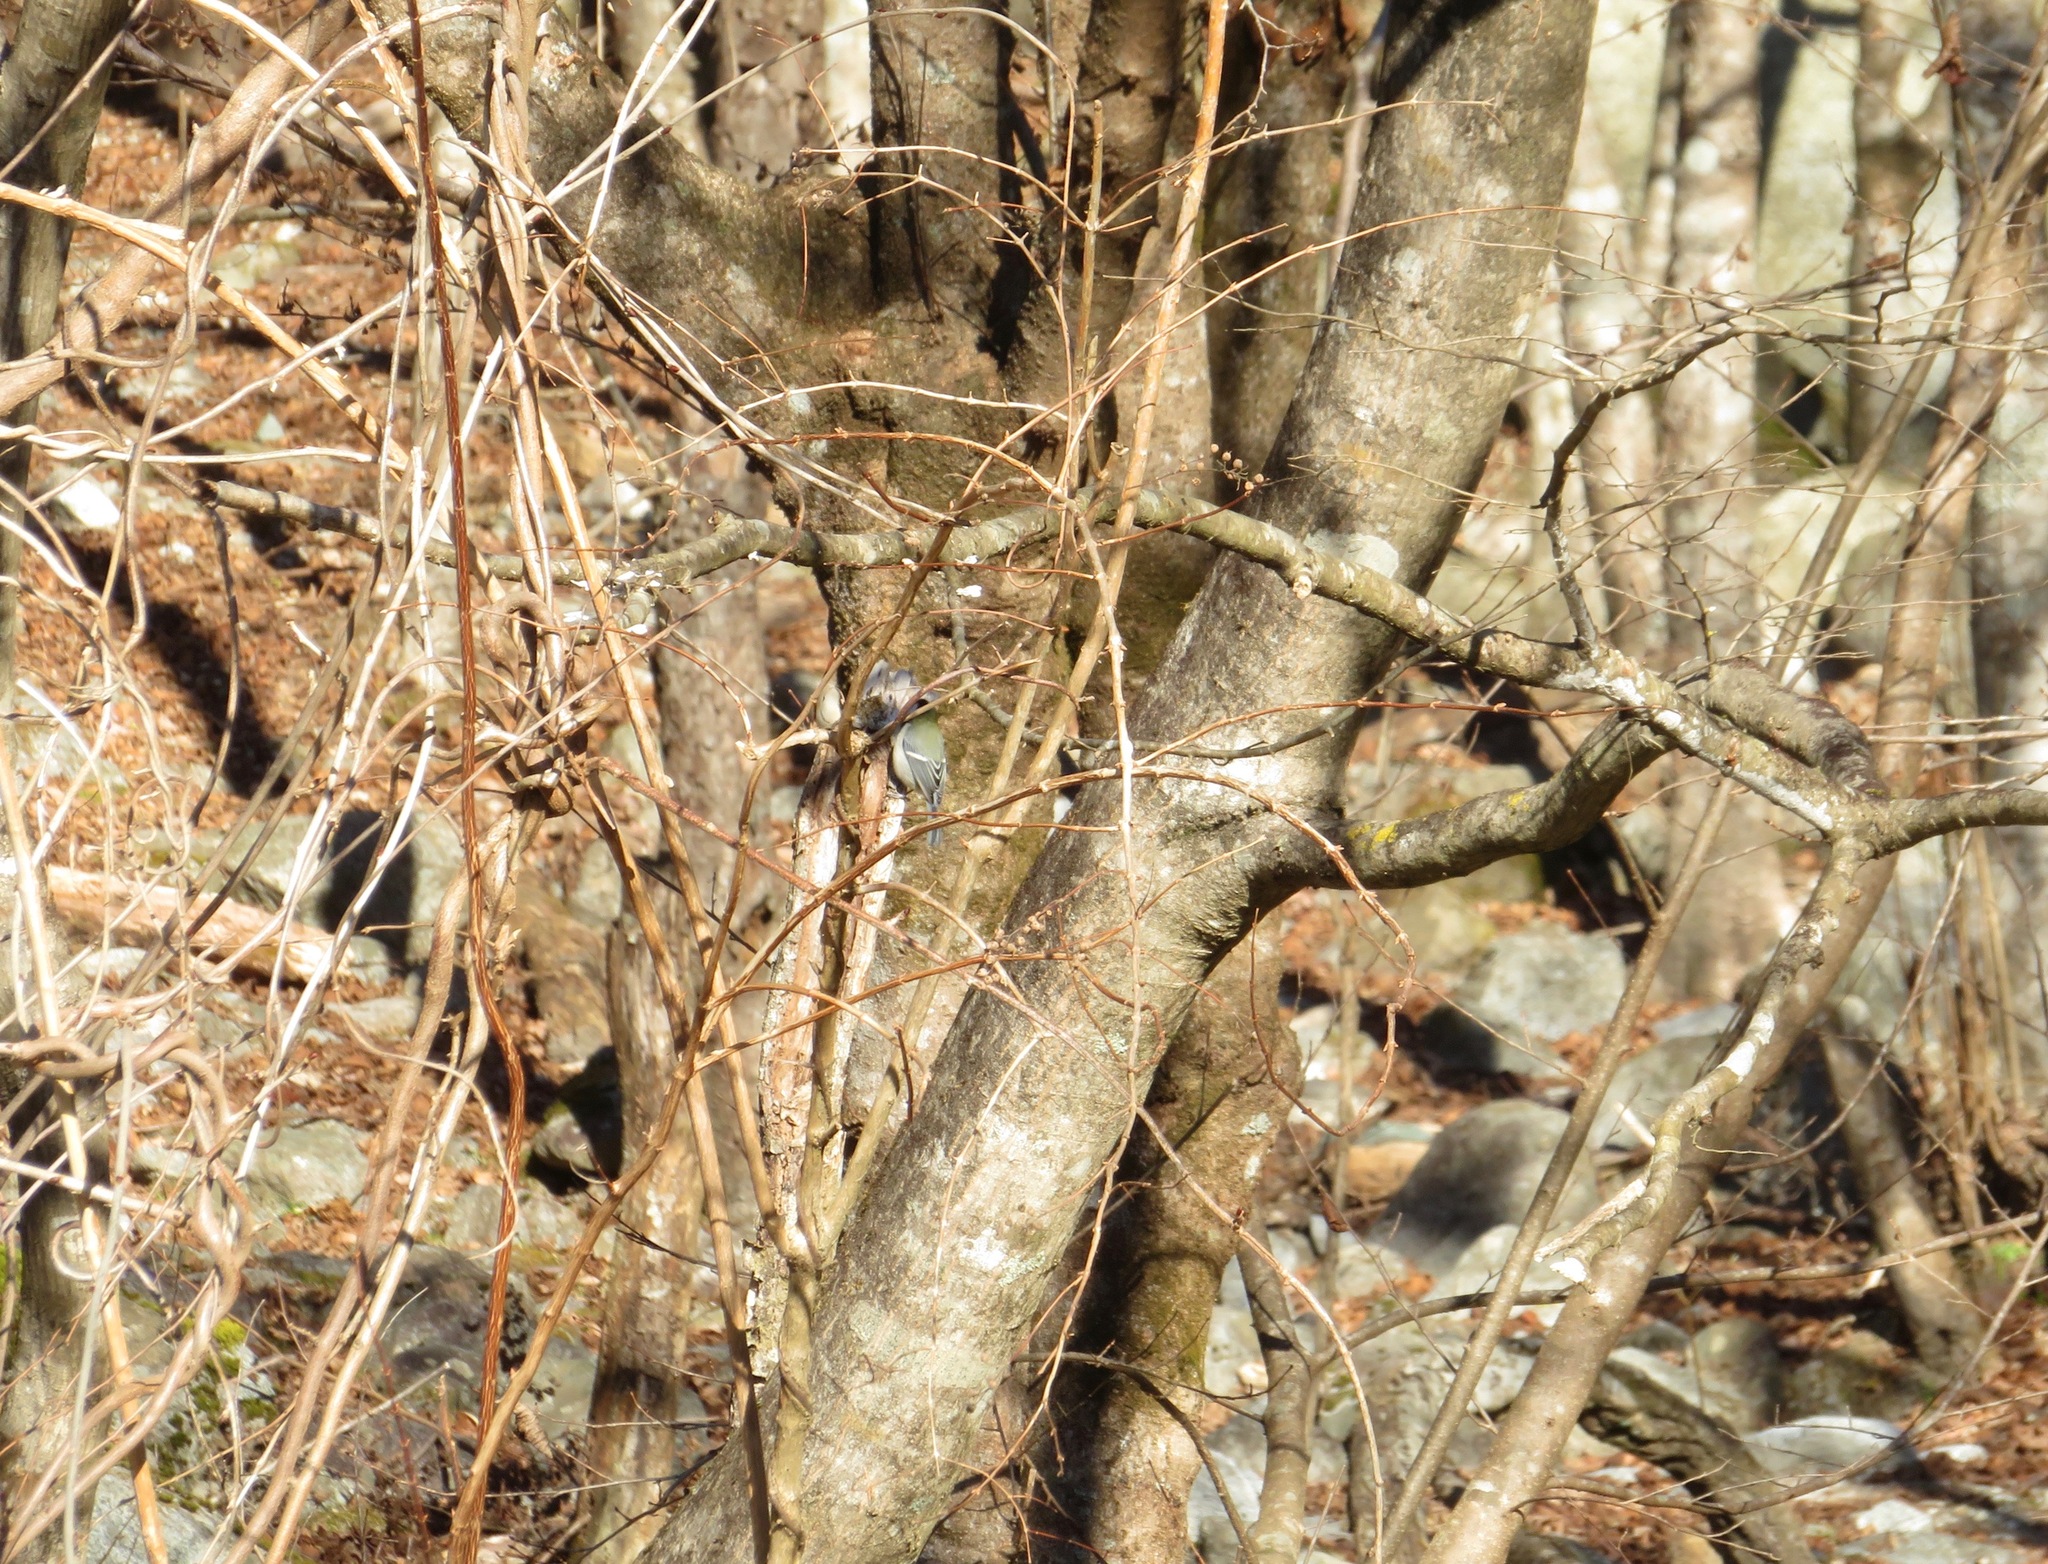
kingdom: Animalia
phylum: Chordata
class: Aves
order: Passeriformes
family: Paridae
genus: Parus
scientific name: Parus minor
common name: Japanese tit
